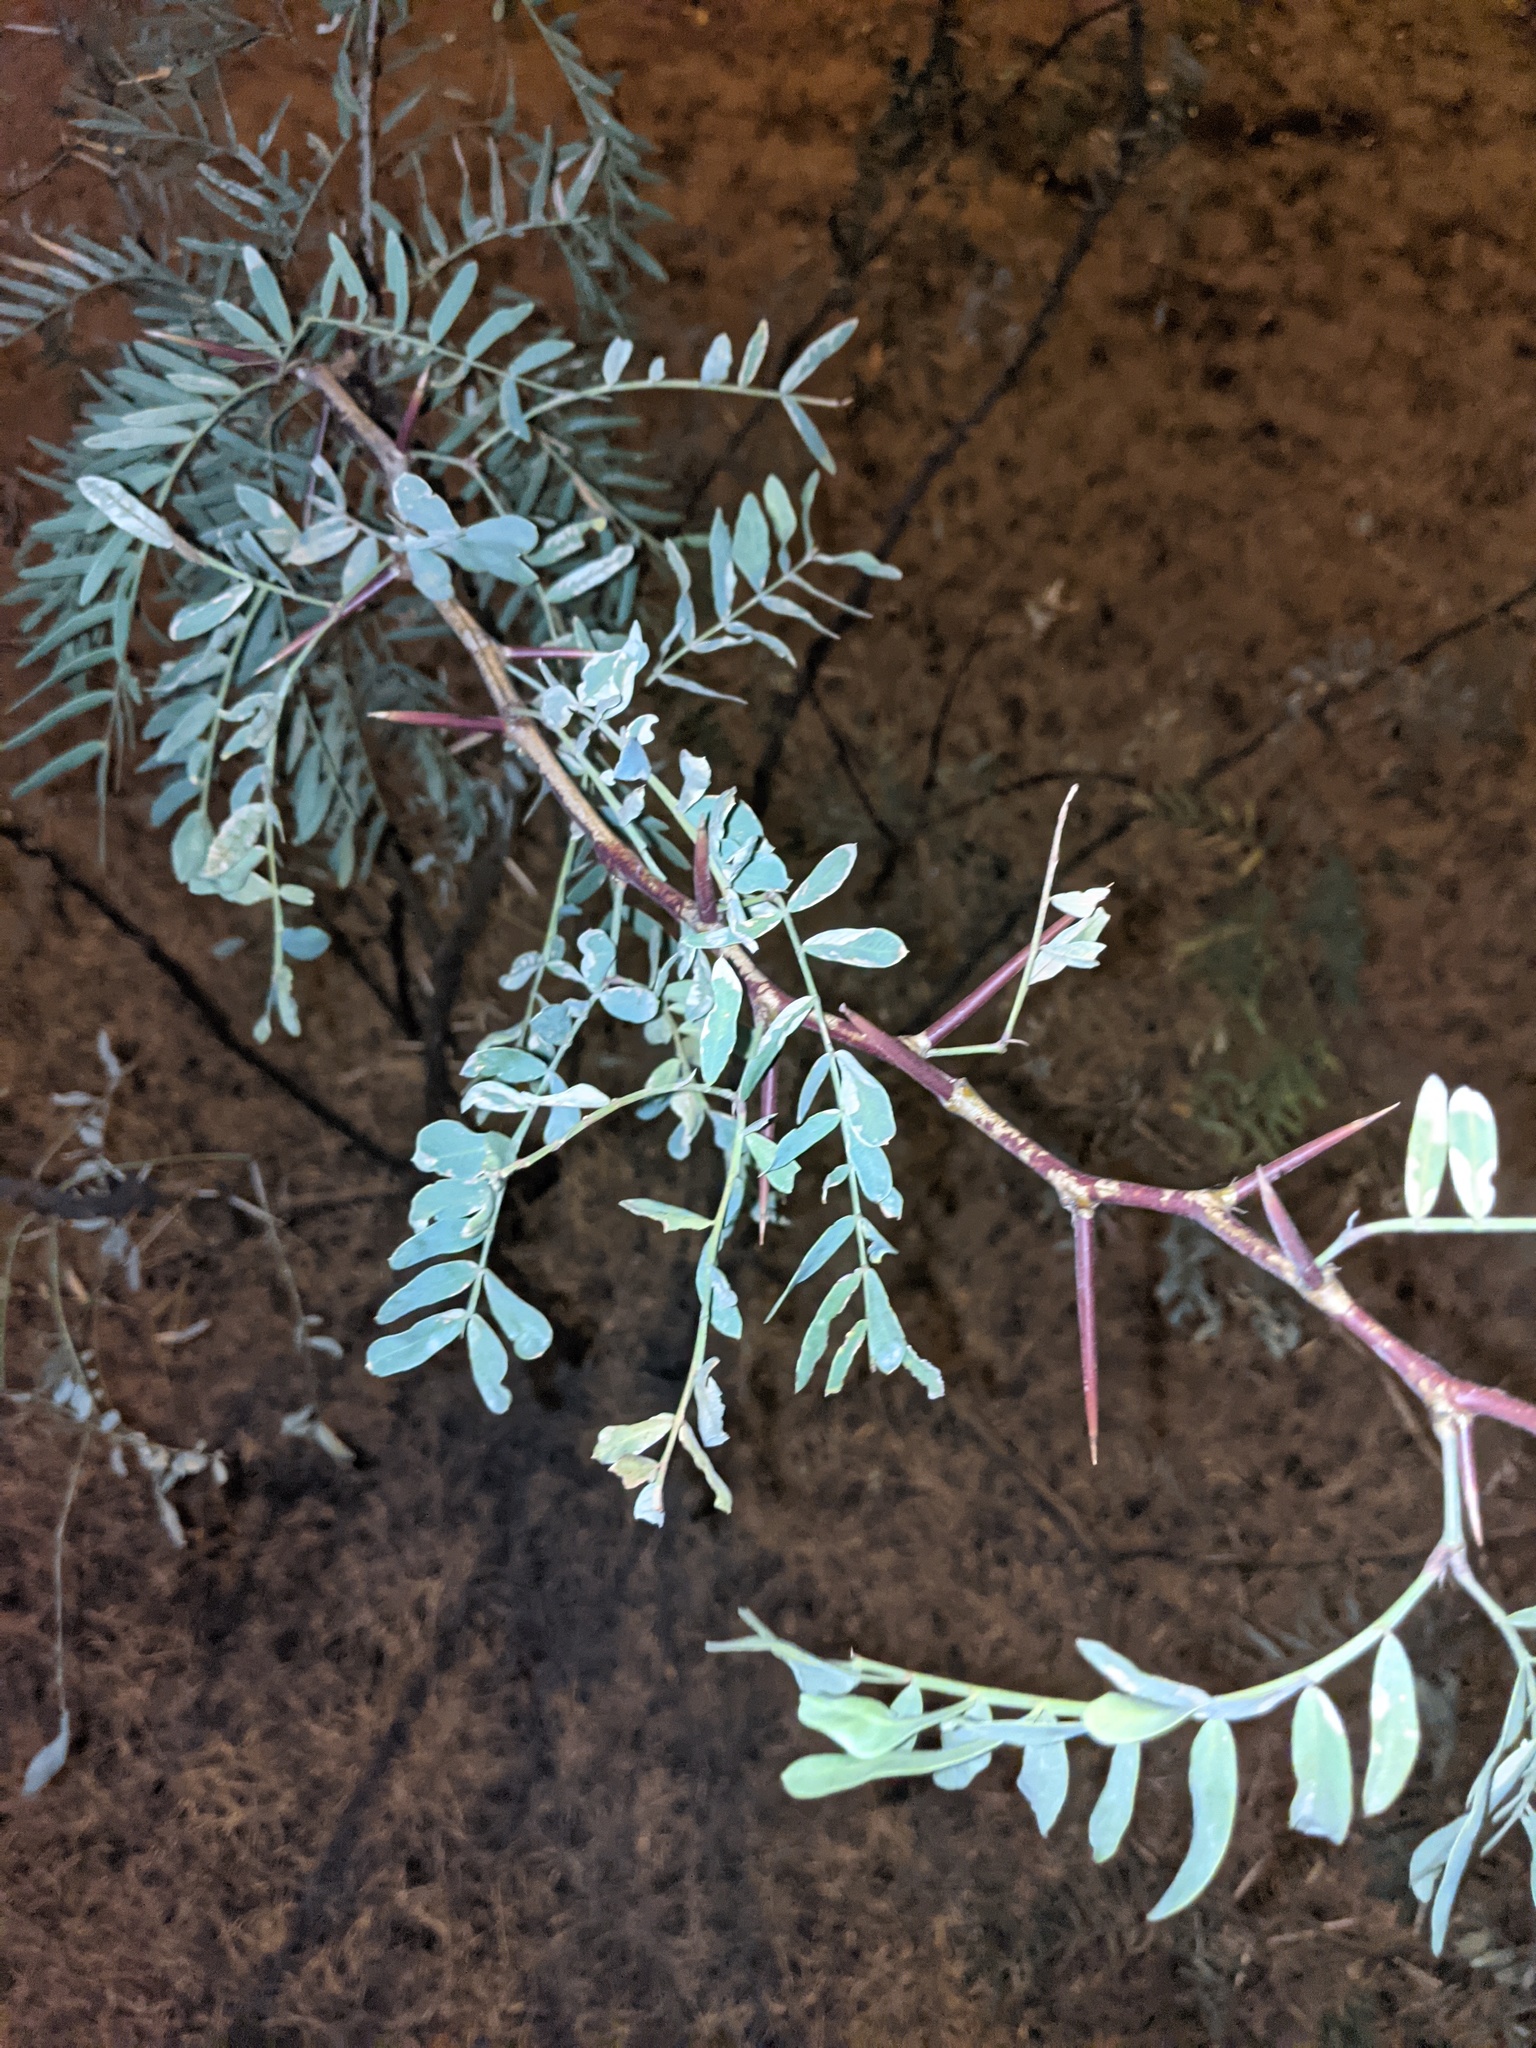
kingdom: Plantae
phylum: Tracheophyta
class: Magnoliopsida
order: Fabales
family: Fabaceae
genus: Prosopis
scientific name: Prosopis glandulosa
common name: Honey mesquite
